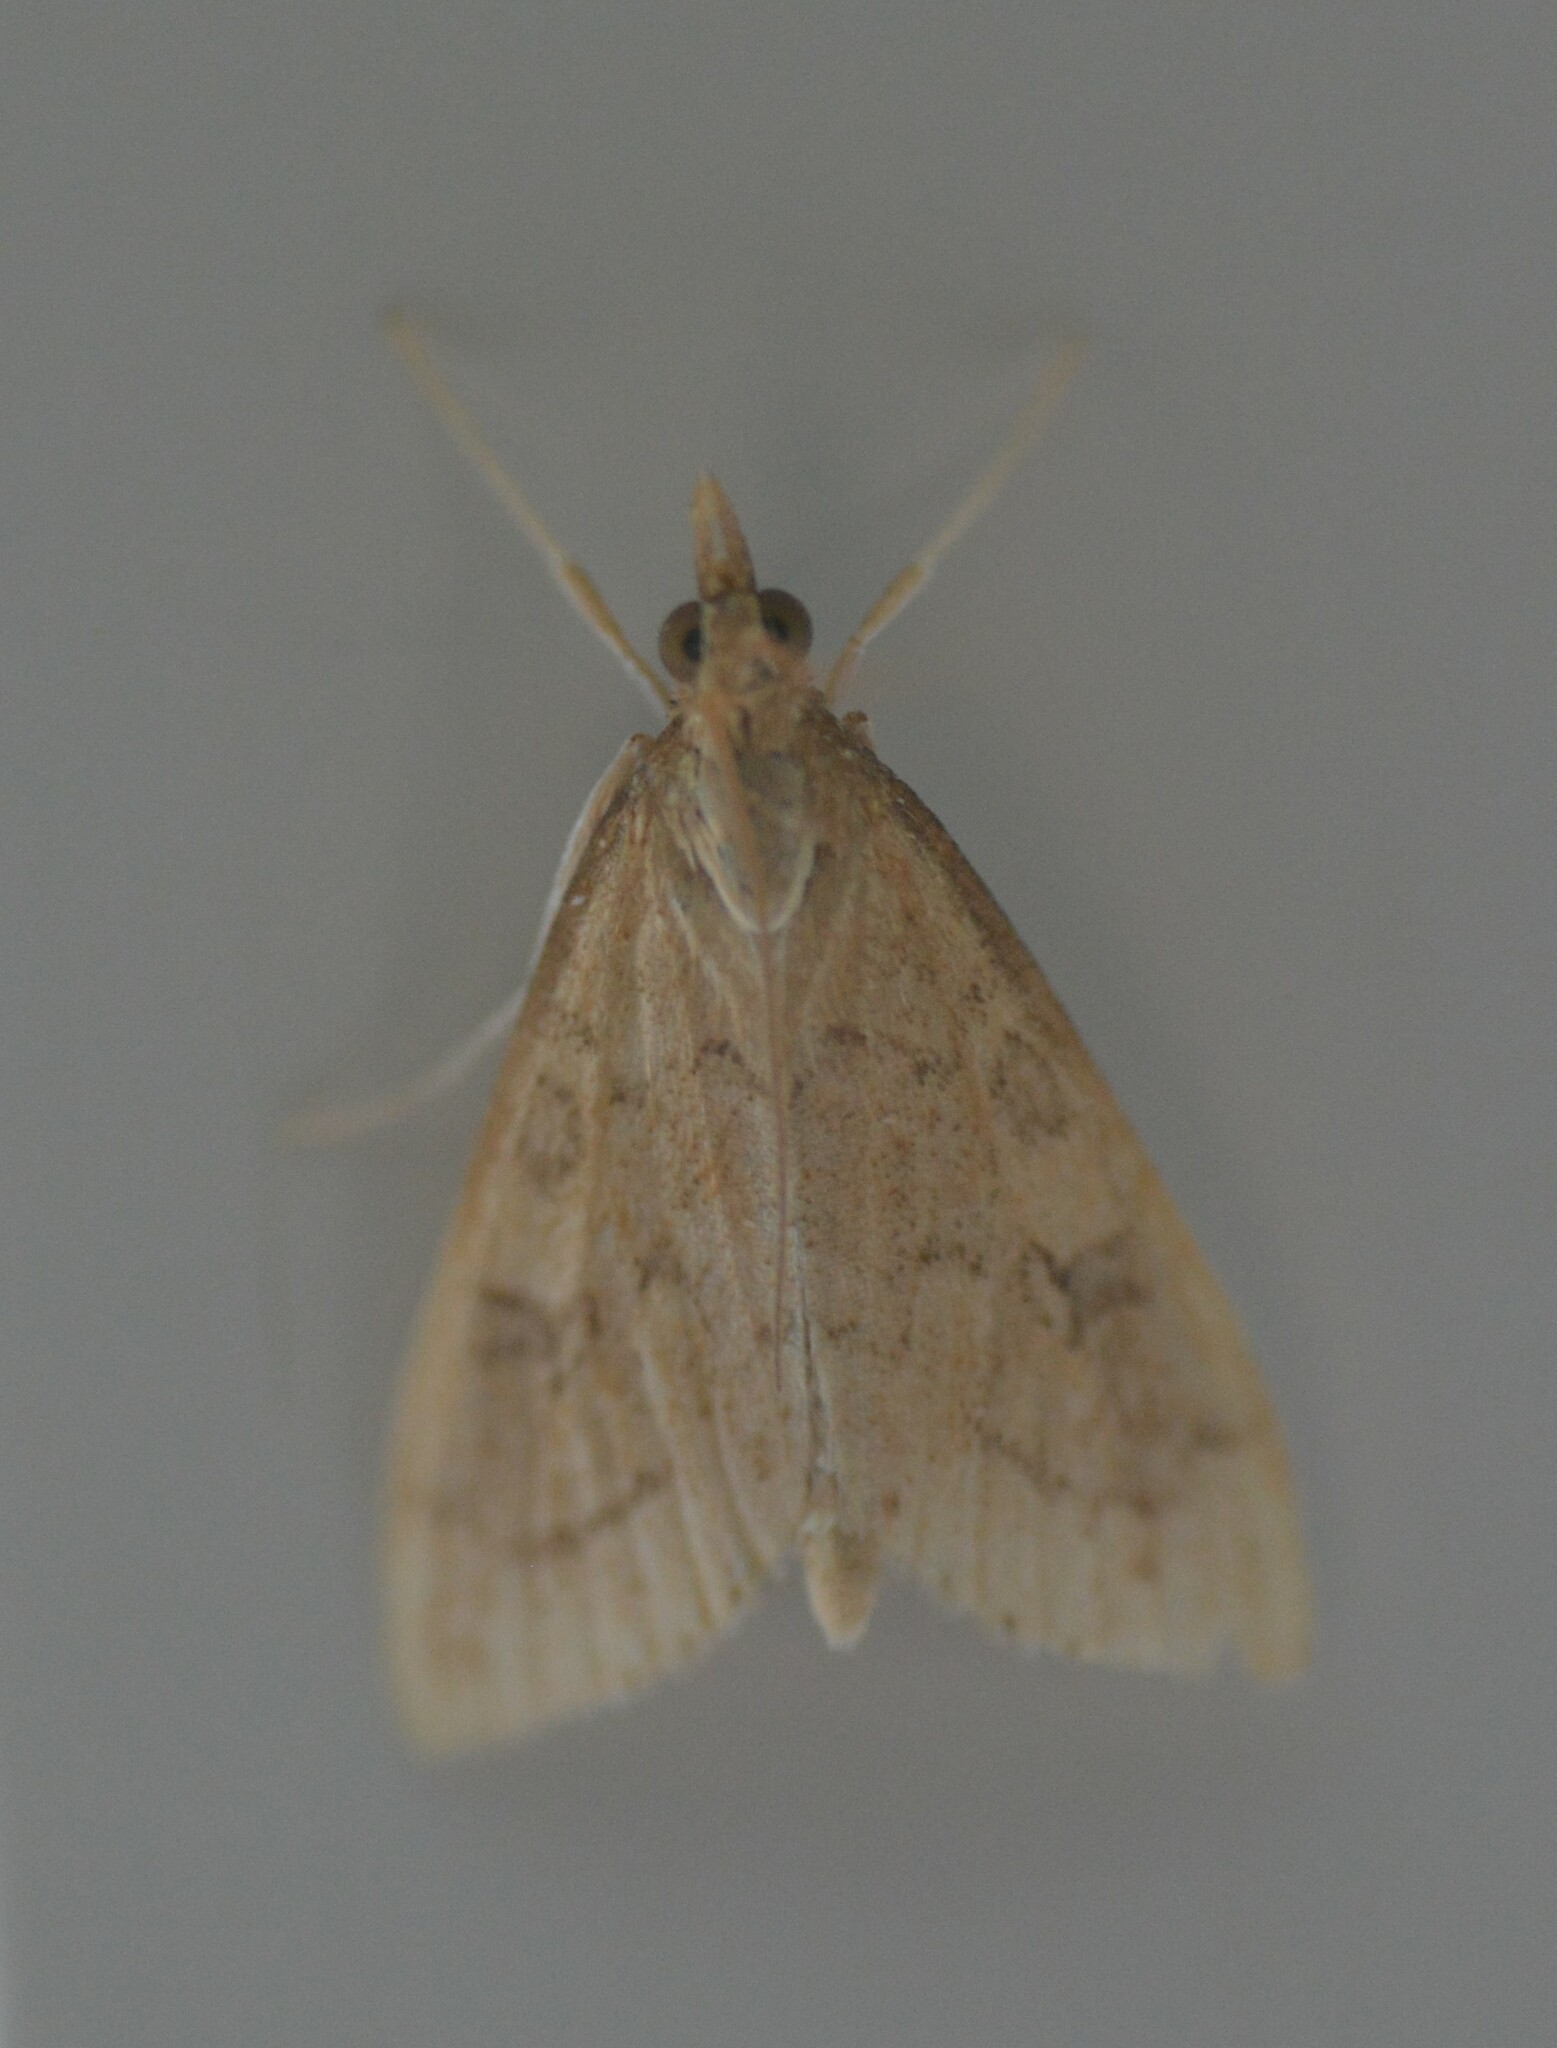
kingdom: Animalia
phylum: Arthropoda
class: Insecta
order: Lepidoptera
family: Crambidae
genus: Udea
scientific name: Udea rubigalis
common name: Celery leaftier moth
